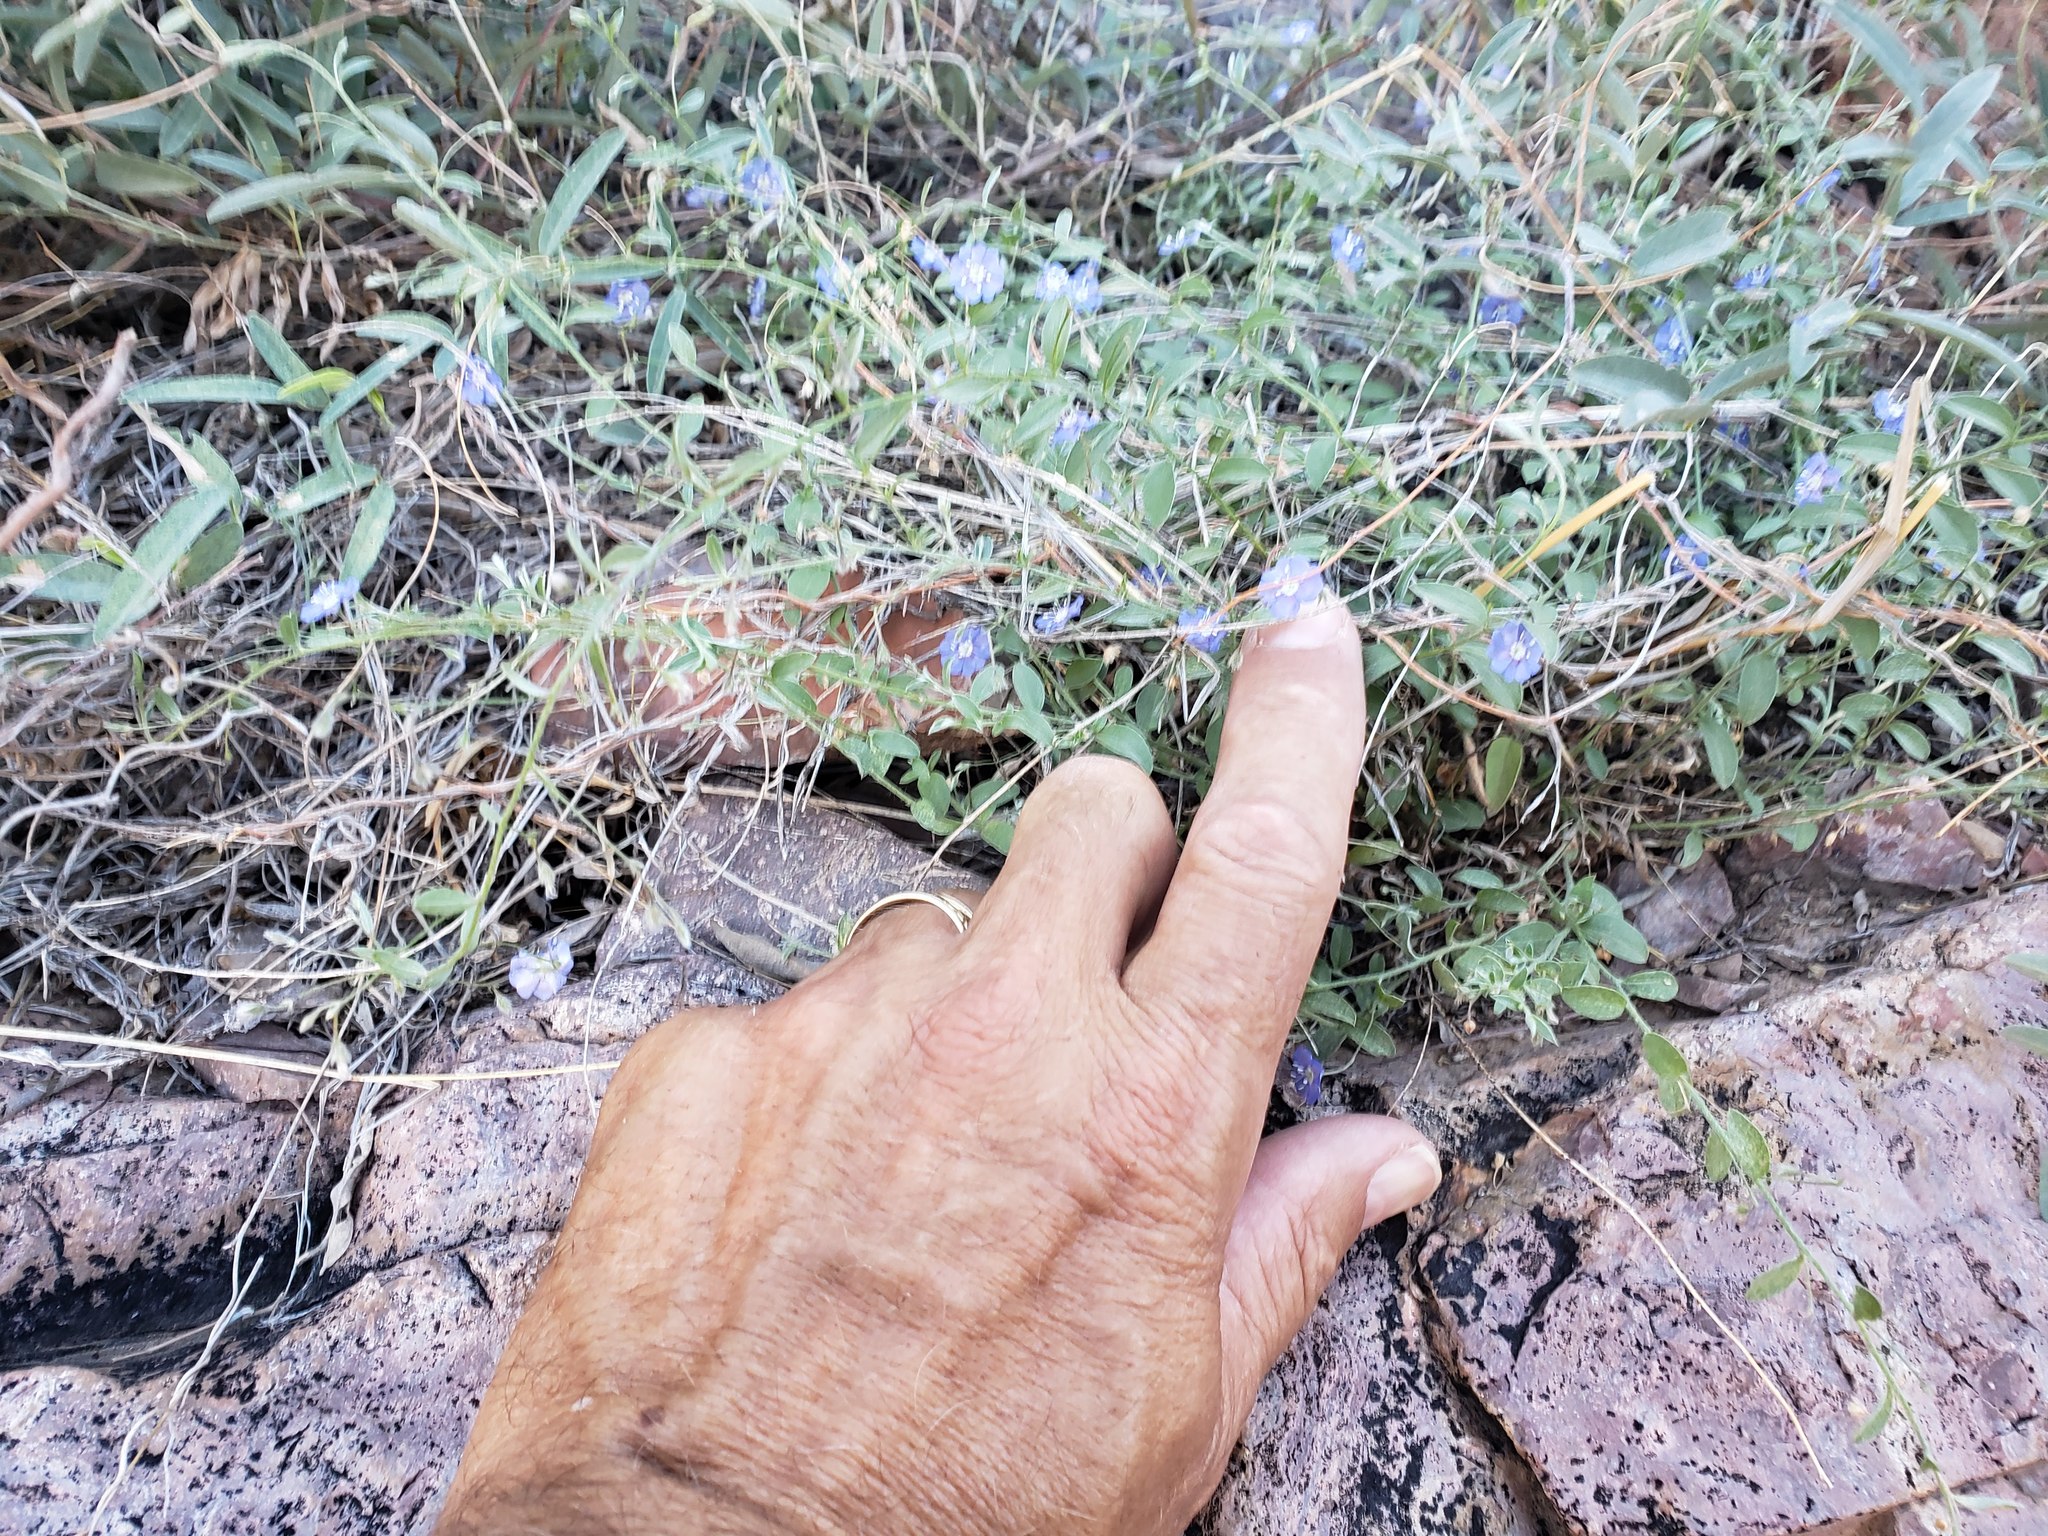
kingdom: Plantae
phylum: Tracheophyta
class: Magnoliopsida
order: Solanales
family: Convolvulaceae
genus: Evolvulus
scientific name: Evolvulus alsinoides
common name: Slender dwarf morning-glory
